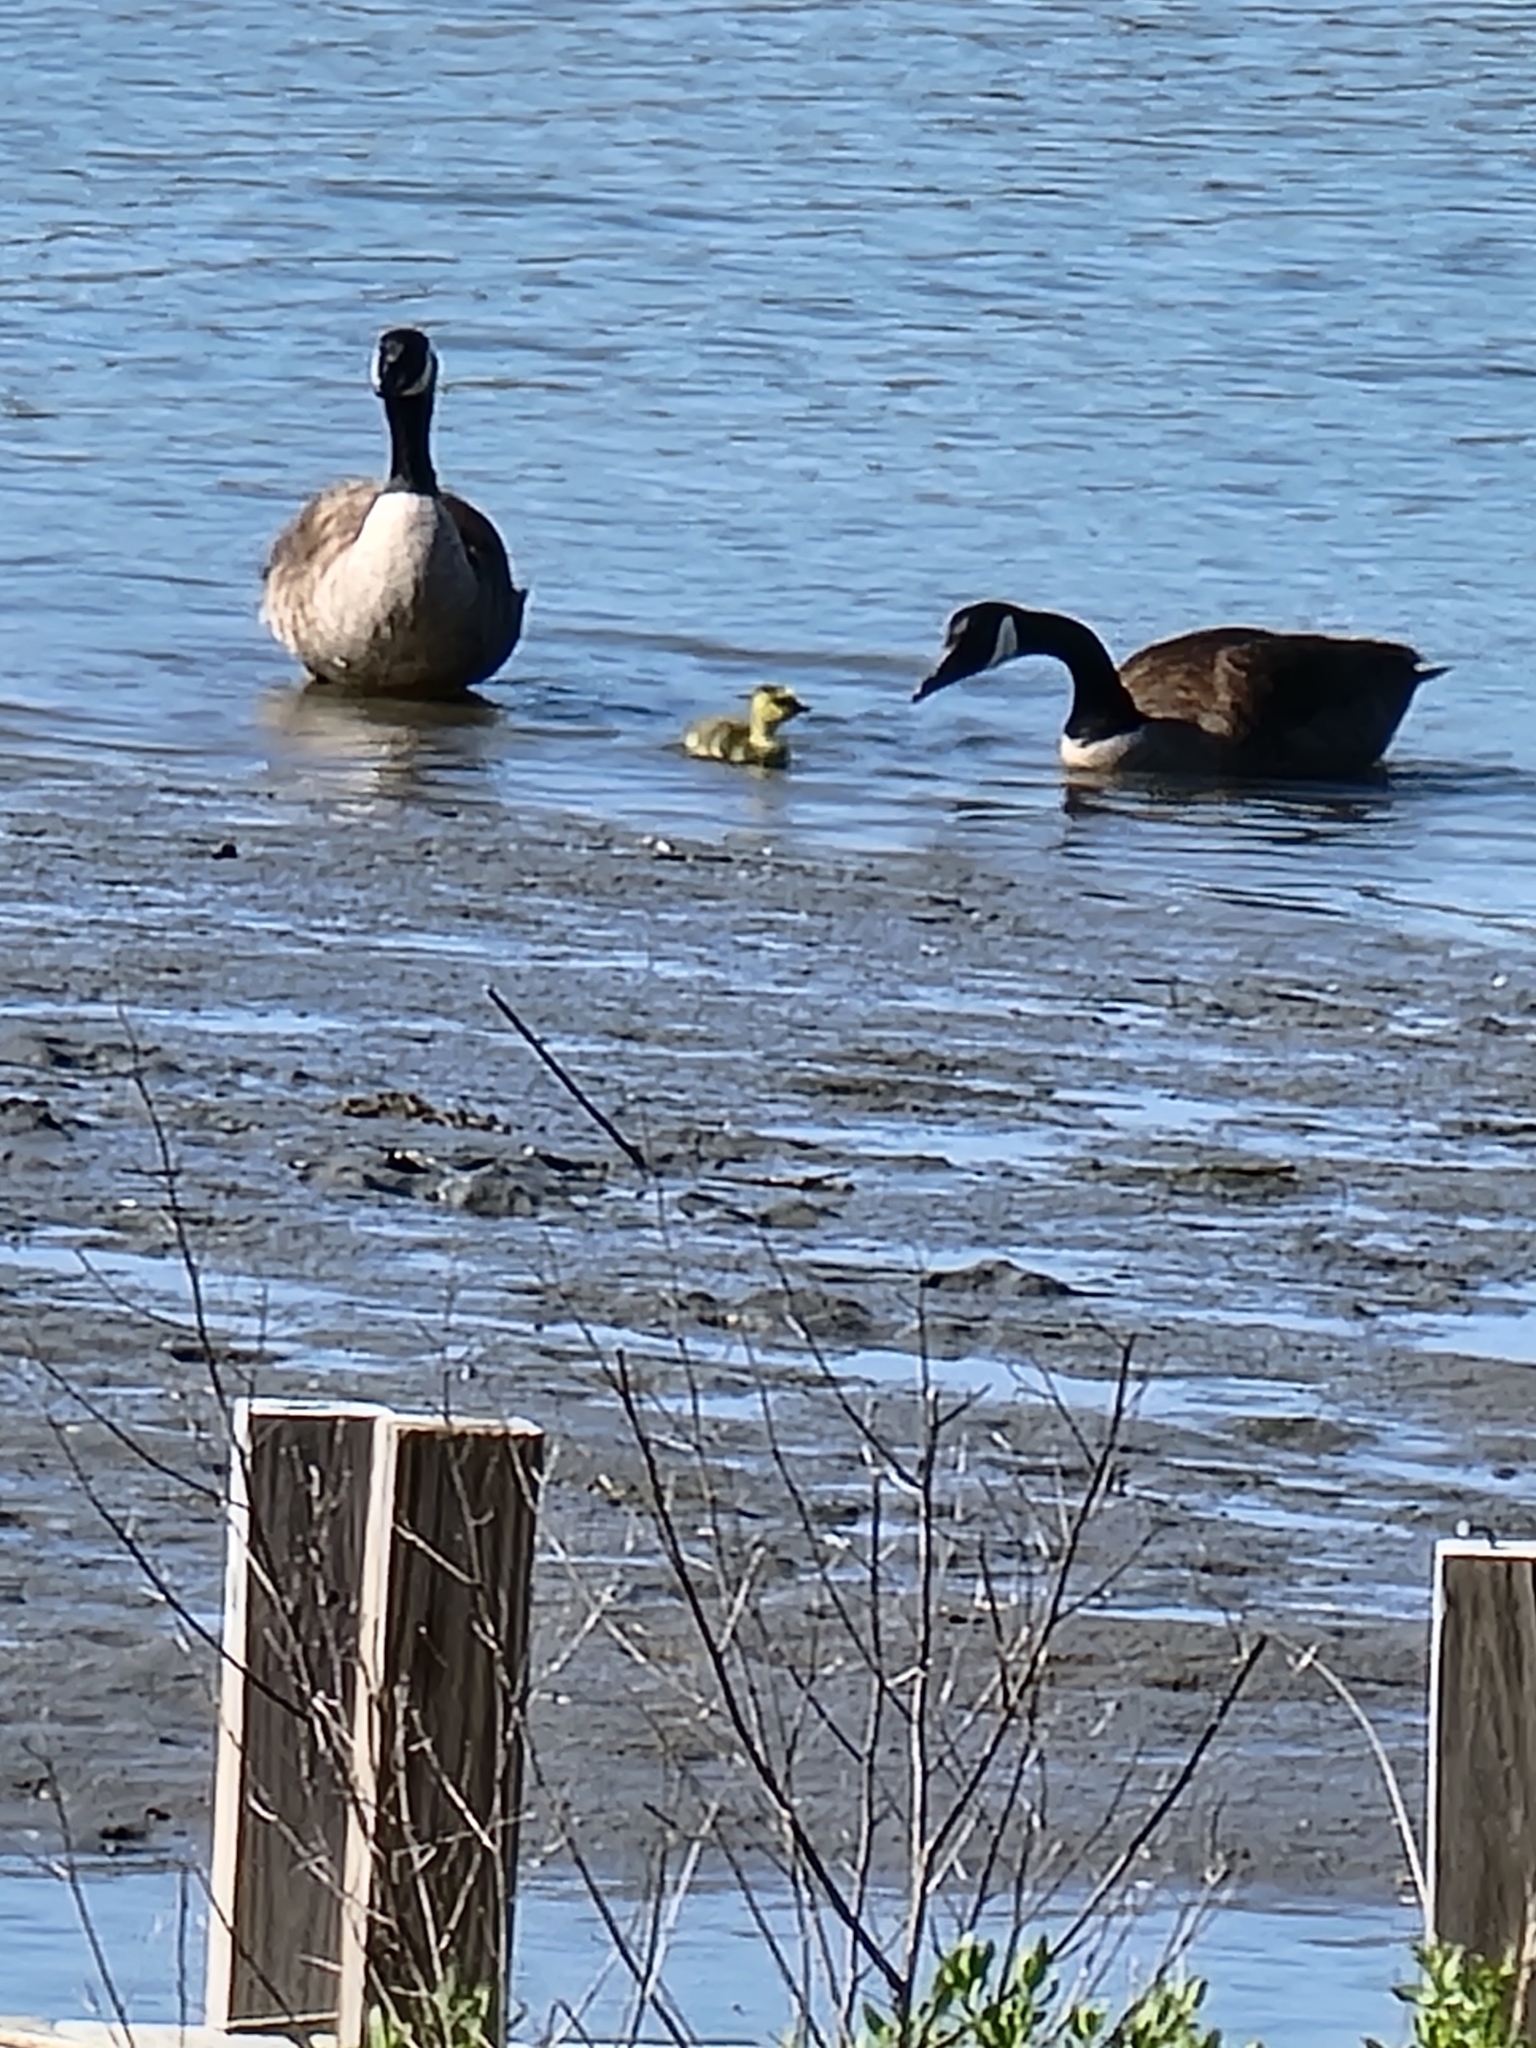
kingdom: Animalia
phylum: Chordata
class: Aves
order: Anseriformes
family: Anatidae
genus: Branta
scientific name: Branta canadensis
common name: Canada goose
